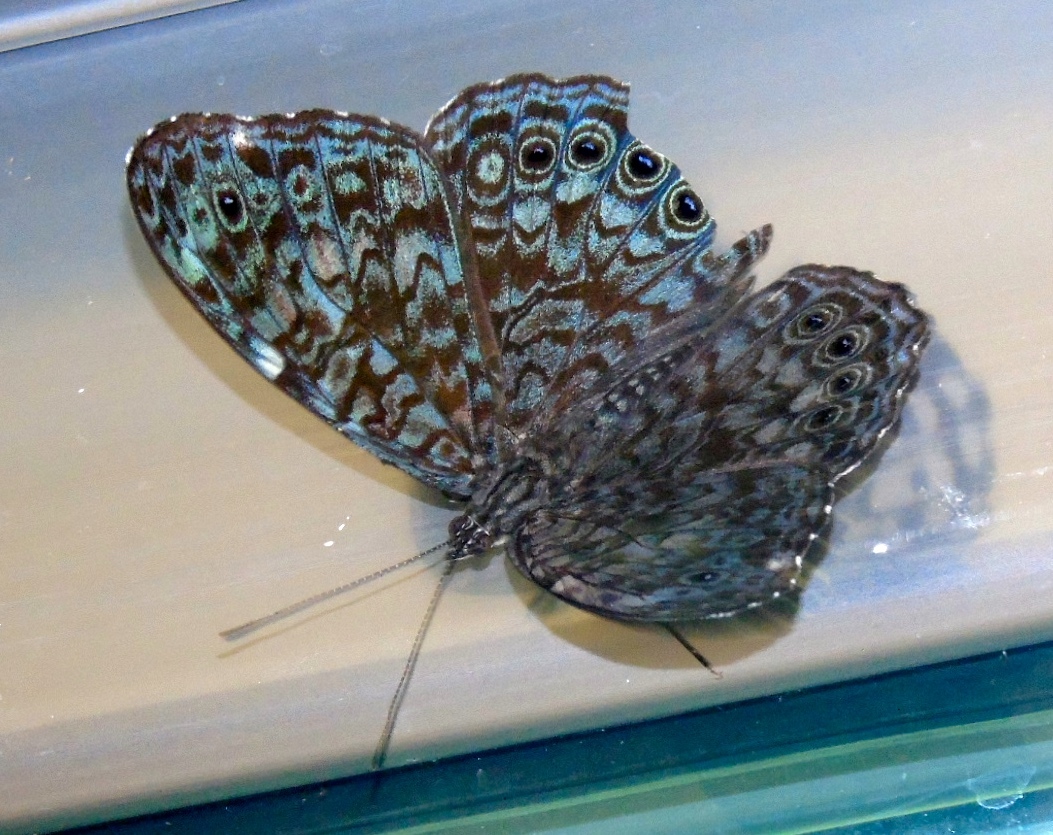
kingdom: Animalia
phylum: Arthropoda
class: Insecta
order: Lepidoptera
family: Nymphalidae
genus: Hamadryas
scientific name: Hamadryas lelaps
